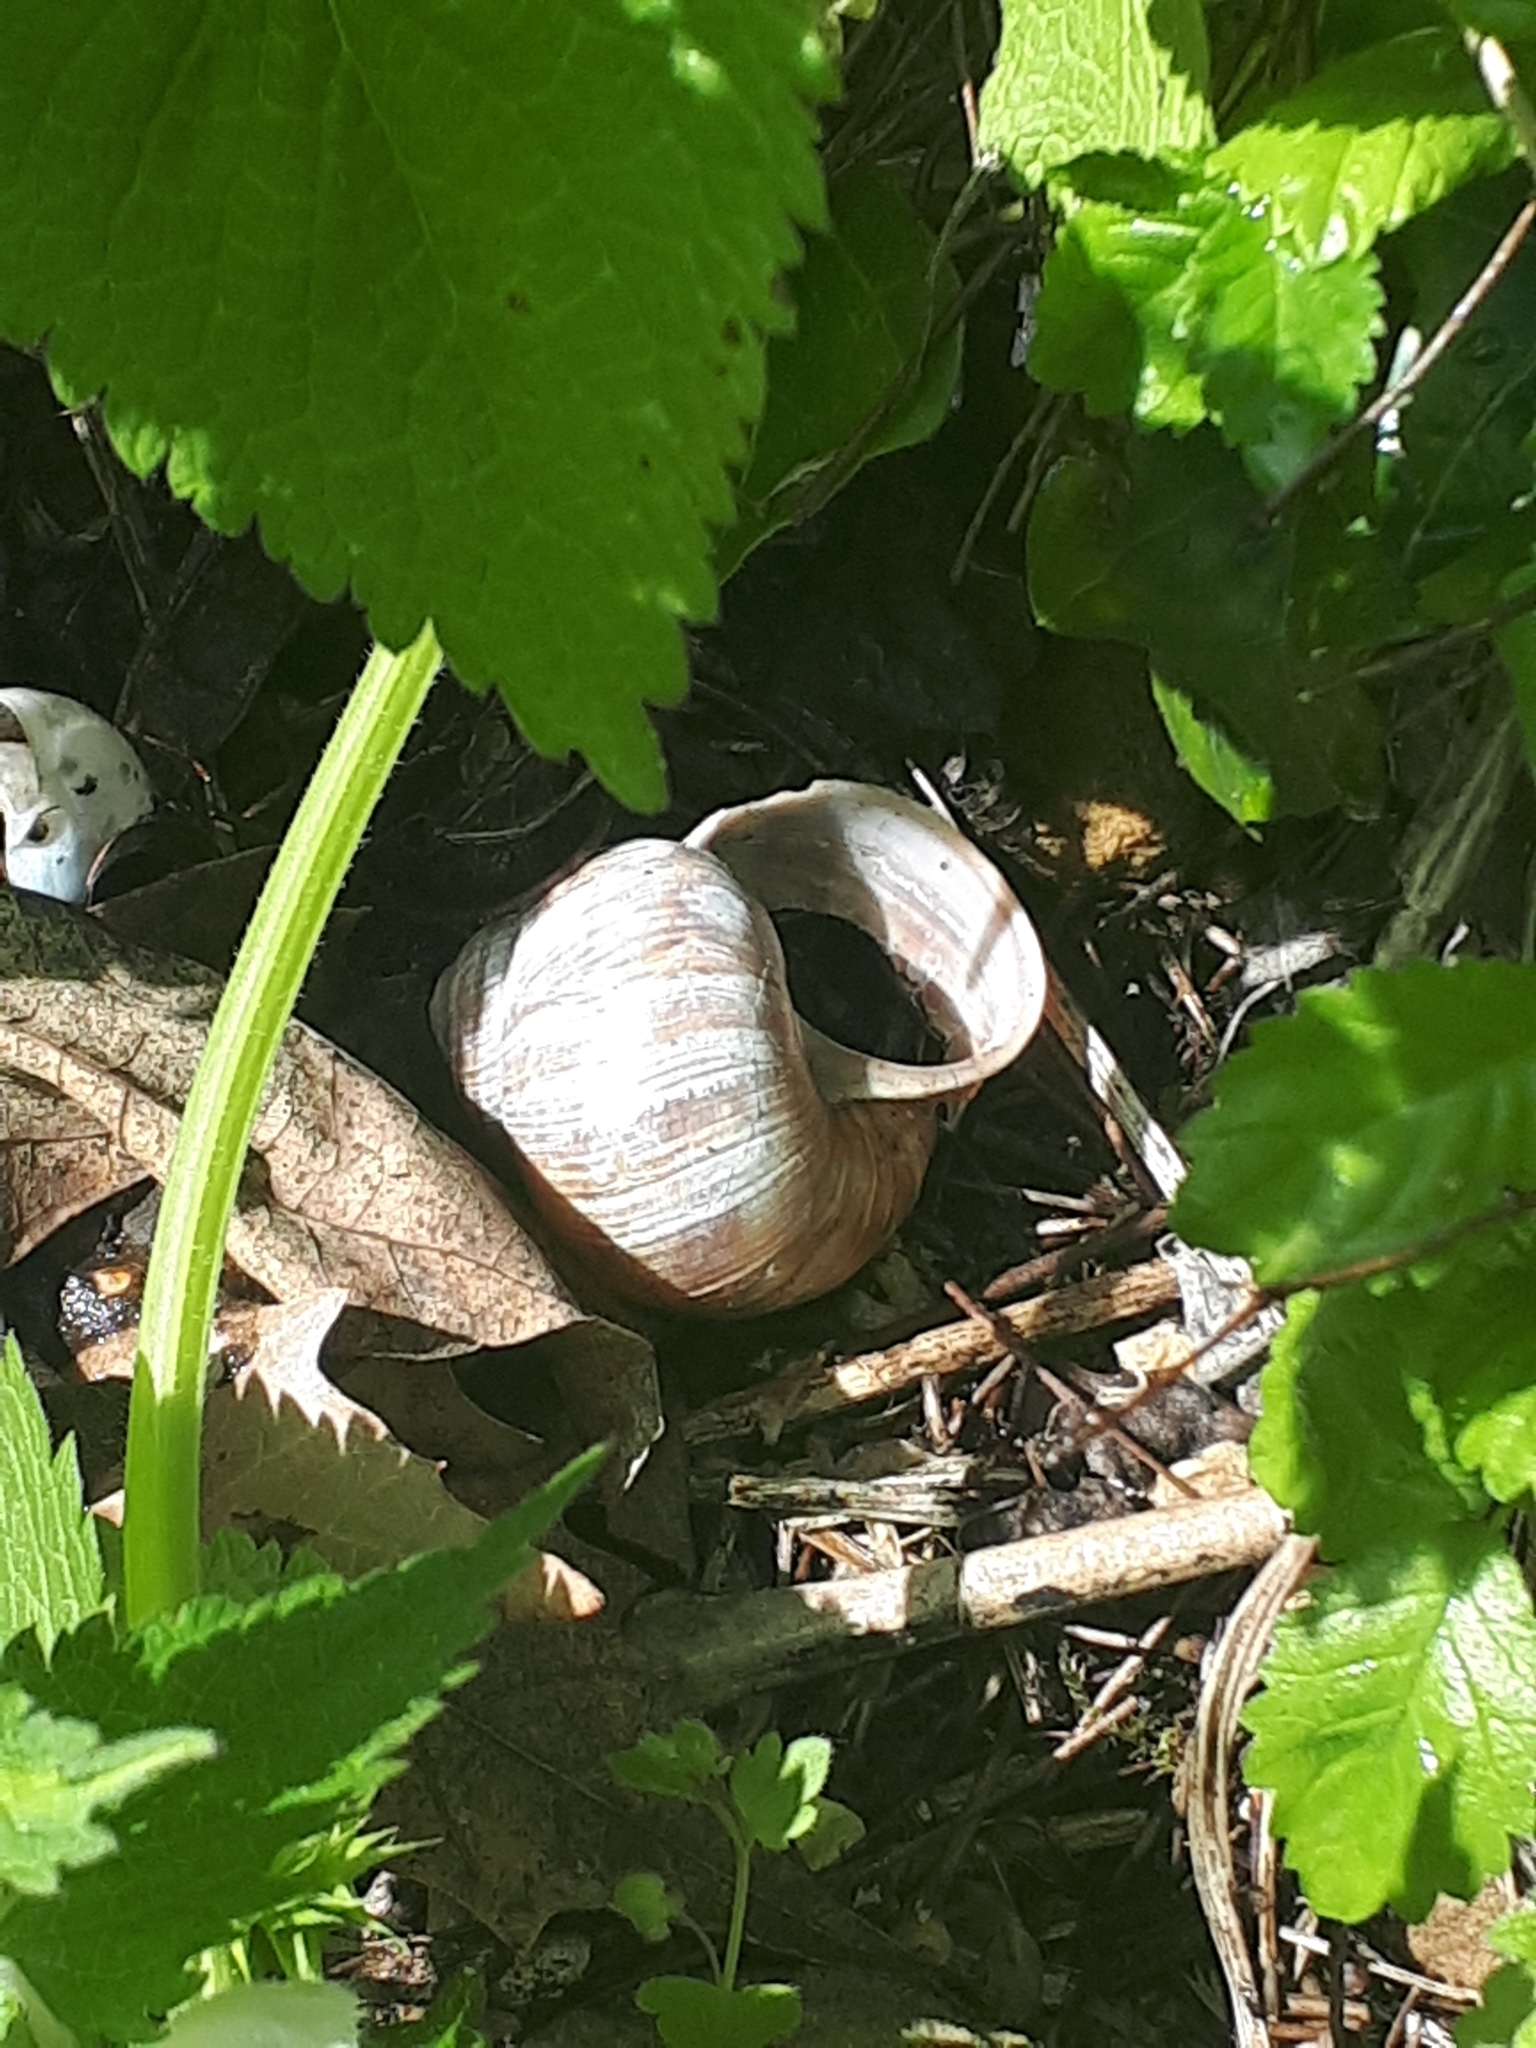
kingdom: Animalia
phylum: Mollusca
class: Gastropoda
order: Stylommatophora
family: Helicidae
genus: Helix
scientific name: Helix pomatia
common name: Roman snail
